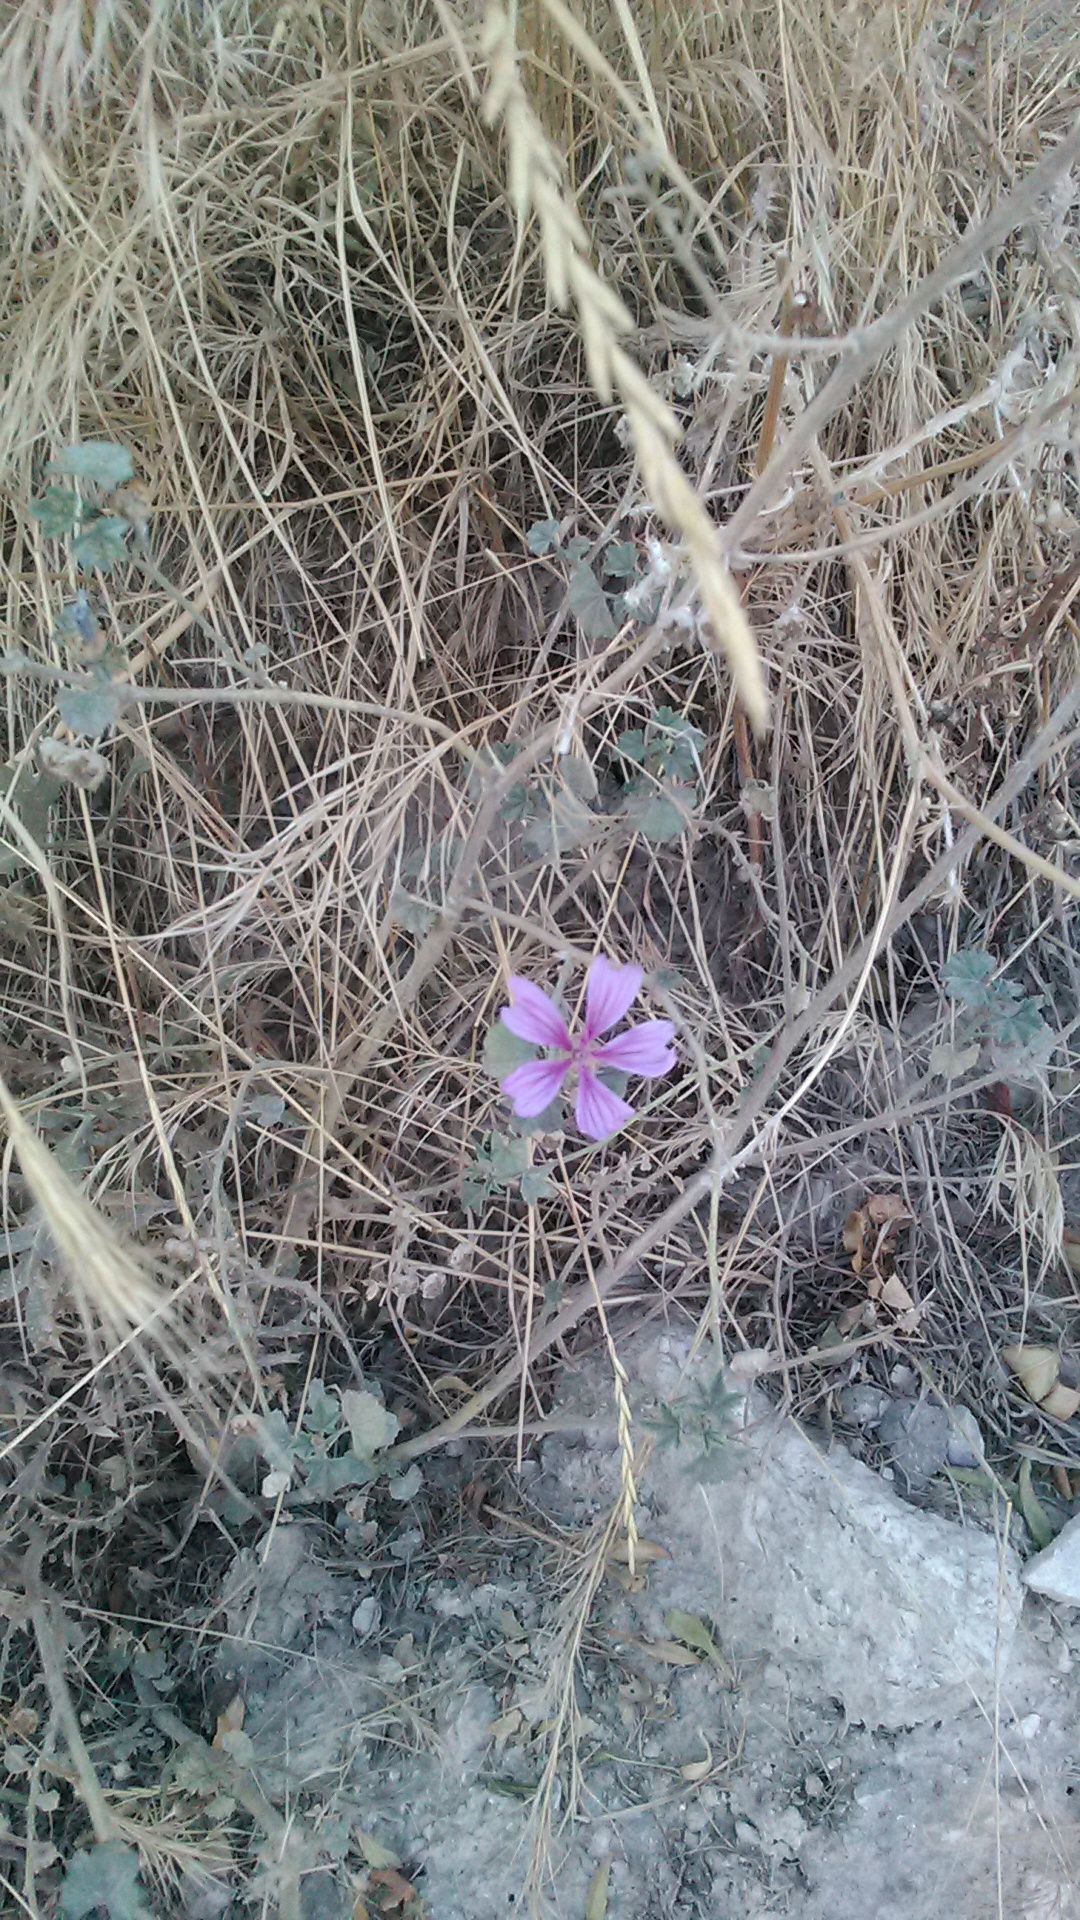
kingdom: Plantae
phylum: Tracheophyta
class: Magnoliopsida
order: Malvales
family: Malvaceae
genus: Malva
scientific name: Malva sylvestris
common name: Common mallow
